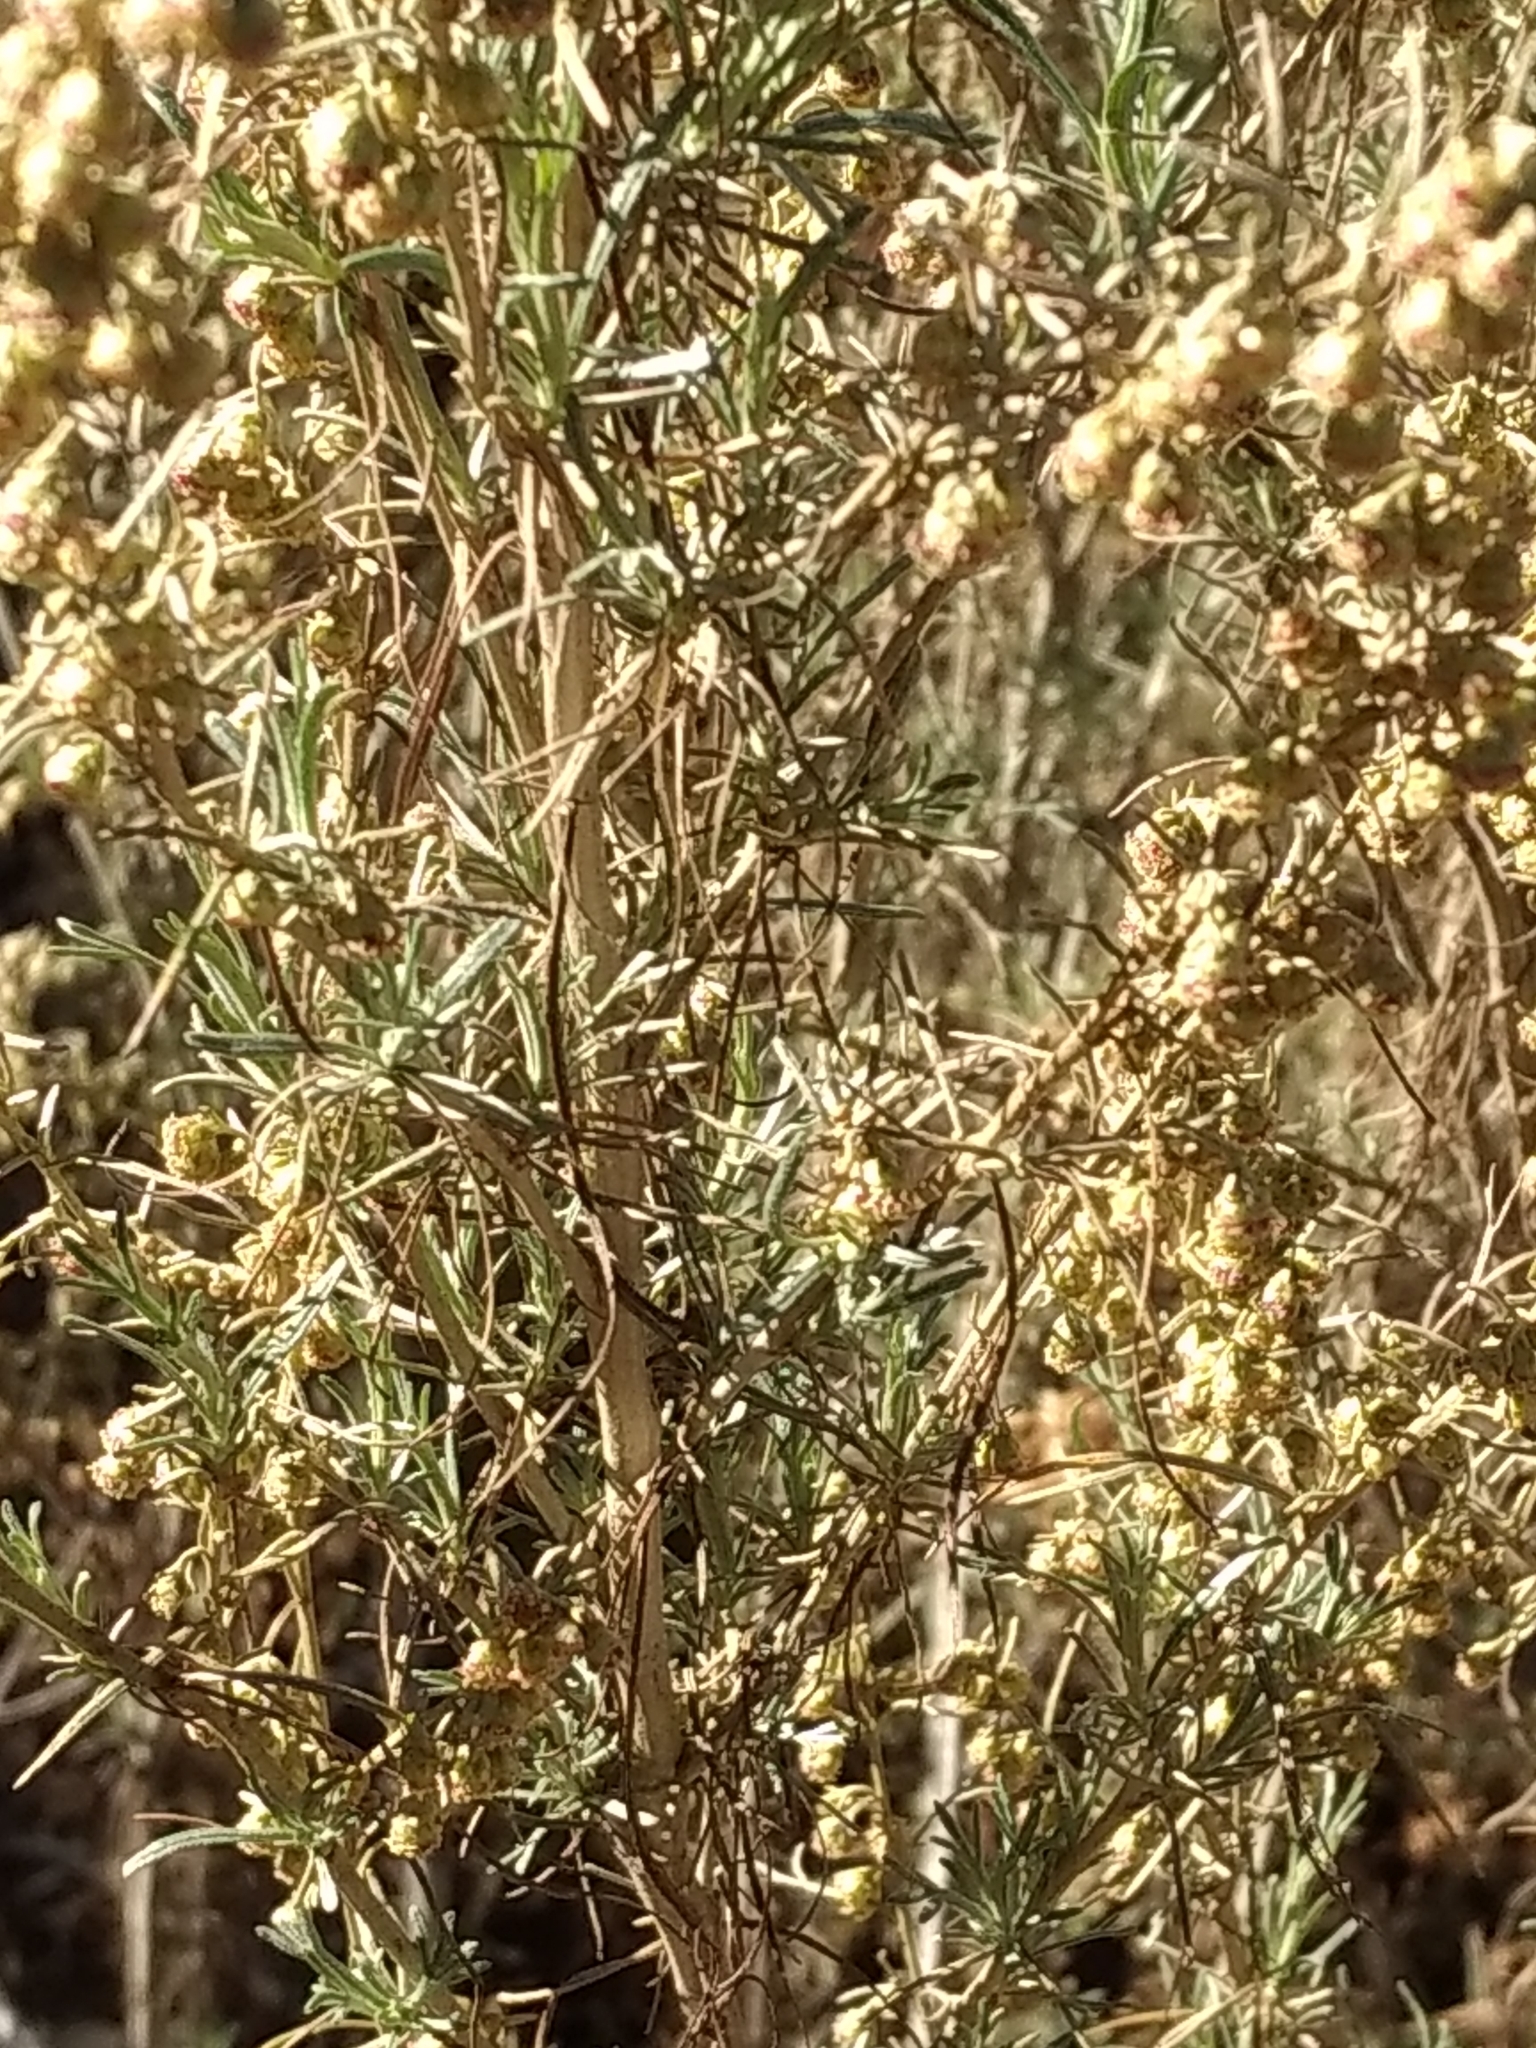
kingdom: Plantae
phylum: Tracheophyta
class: Magnoliopsida
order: Asterales
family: Asteraceae
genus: Artemisia
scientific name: Artemisia californica
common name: California sagebrush
